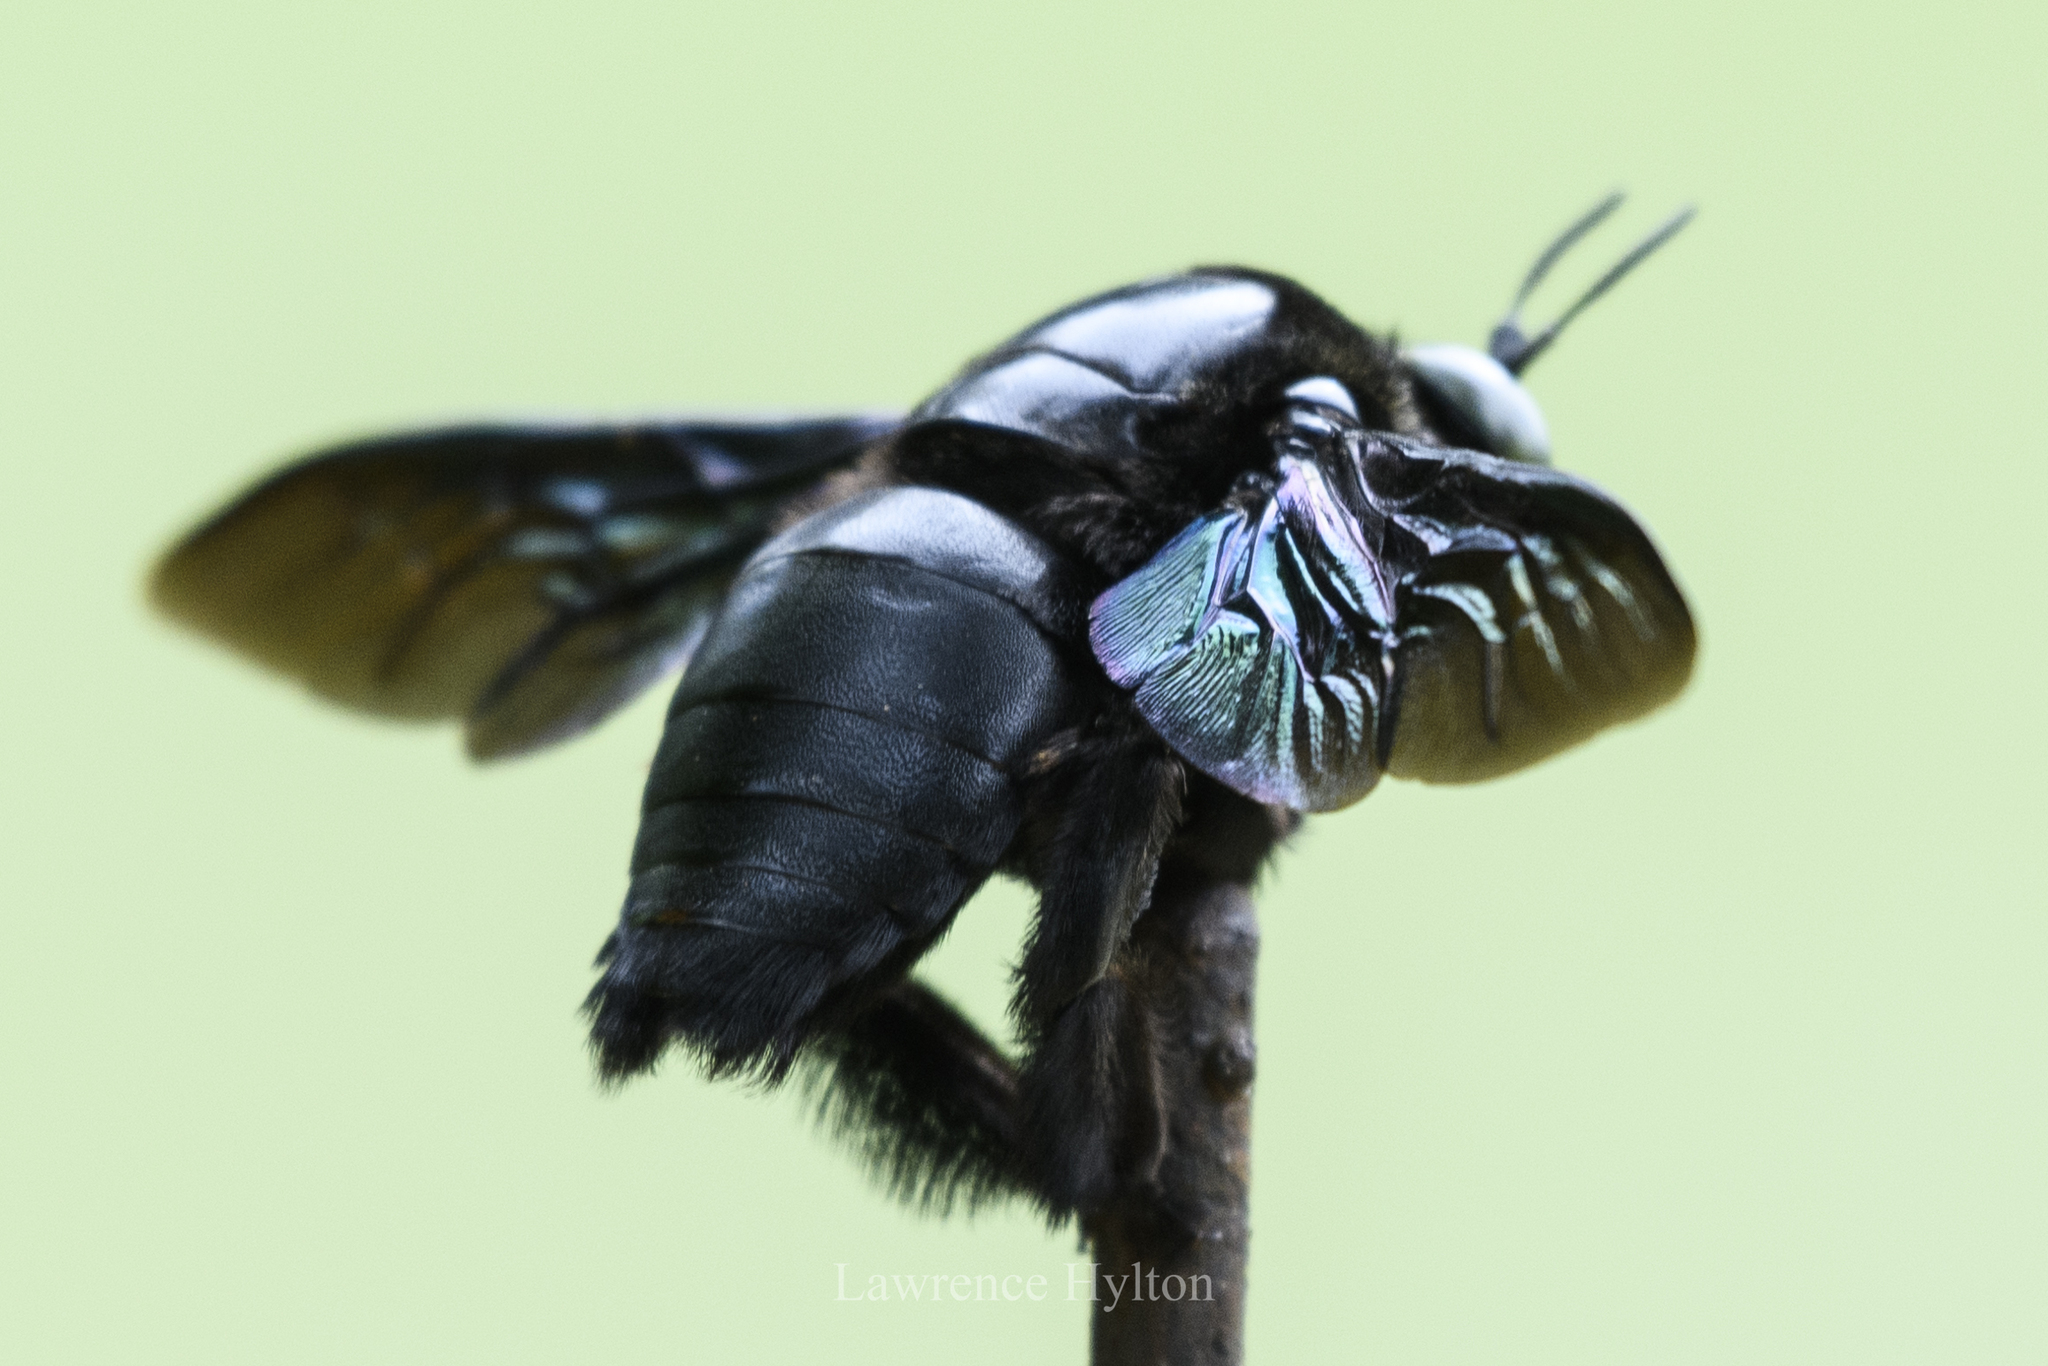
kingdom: Animalia
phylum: Arthropoda
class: Insecta
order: Hymenoptera
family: Apidae
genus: Xylocopa
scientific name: Xylocopa latipes
